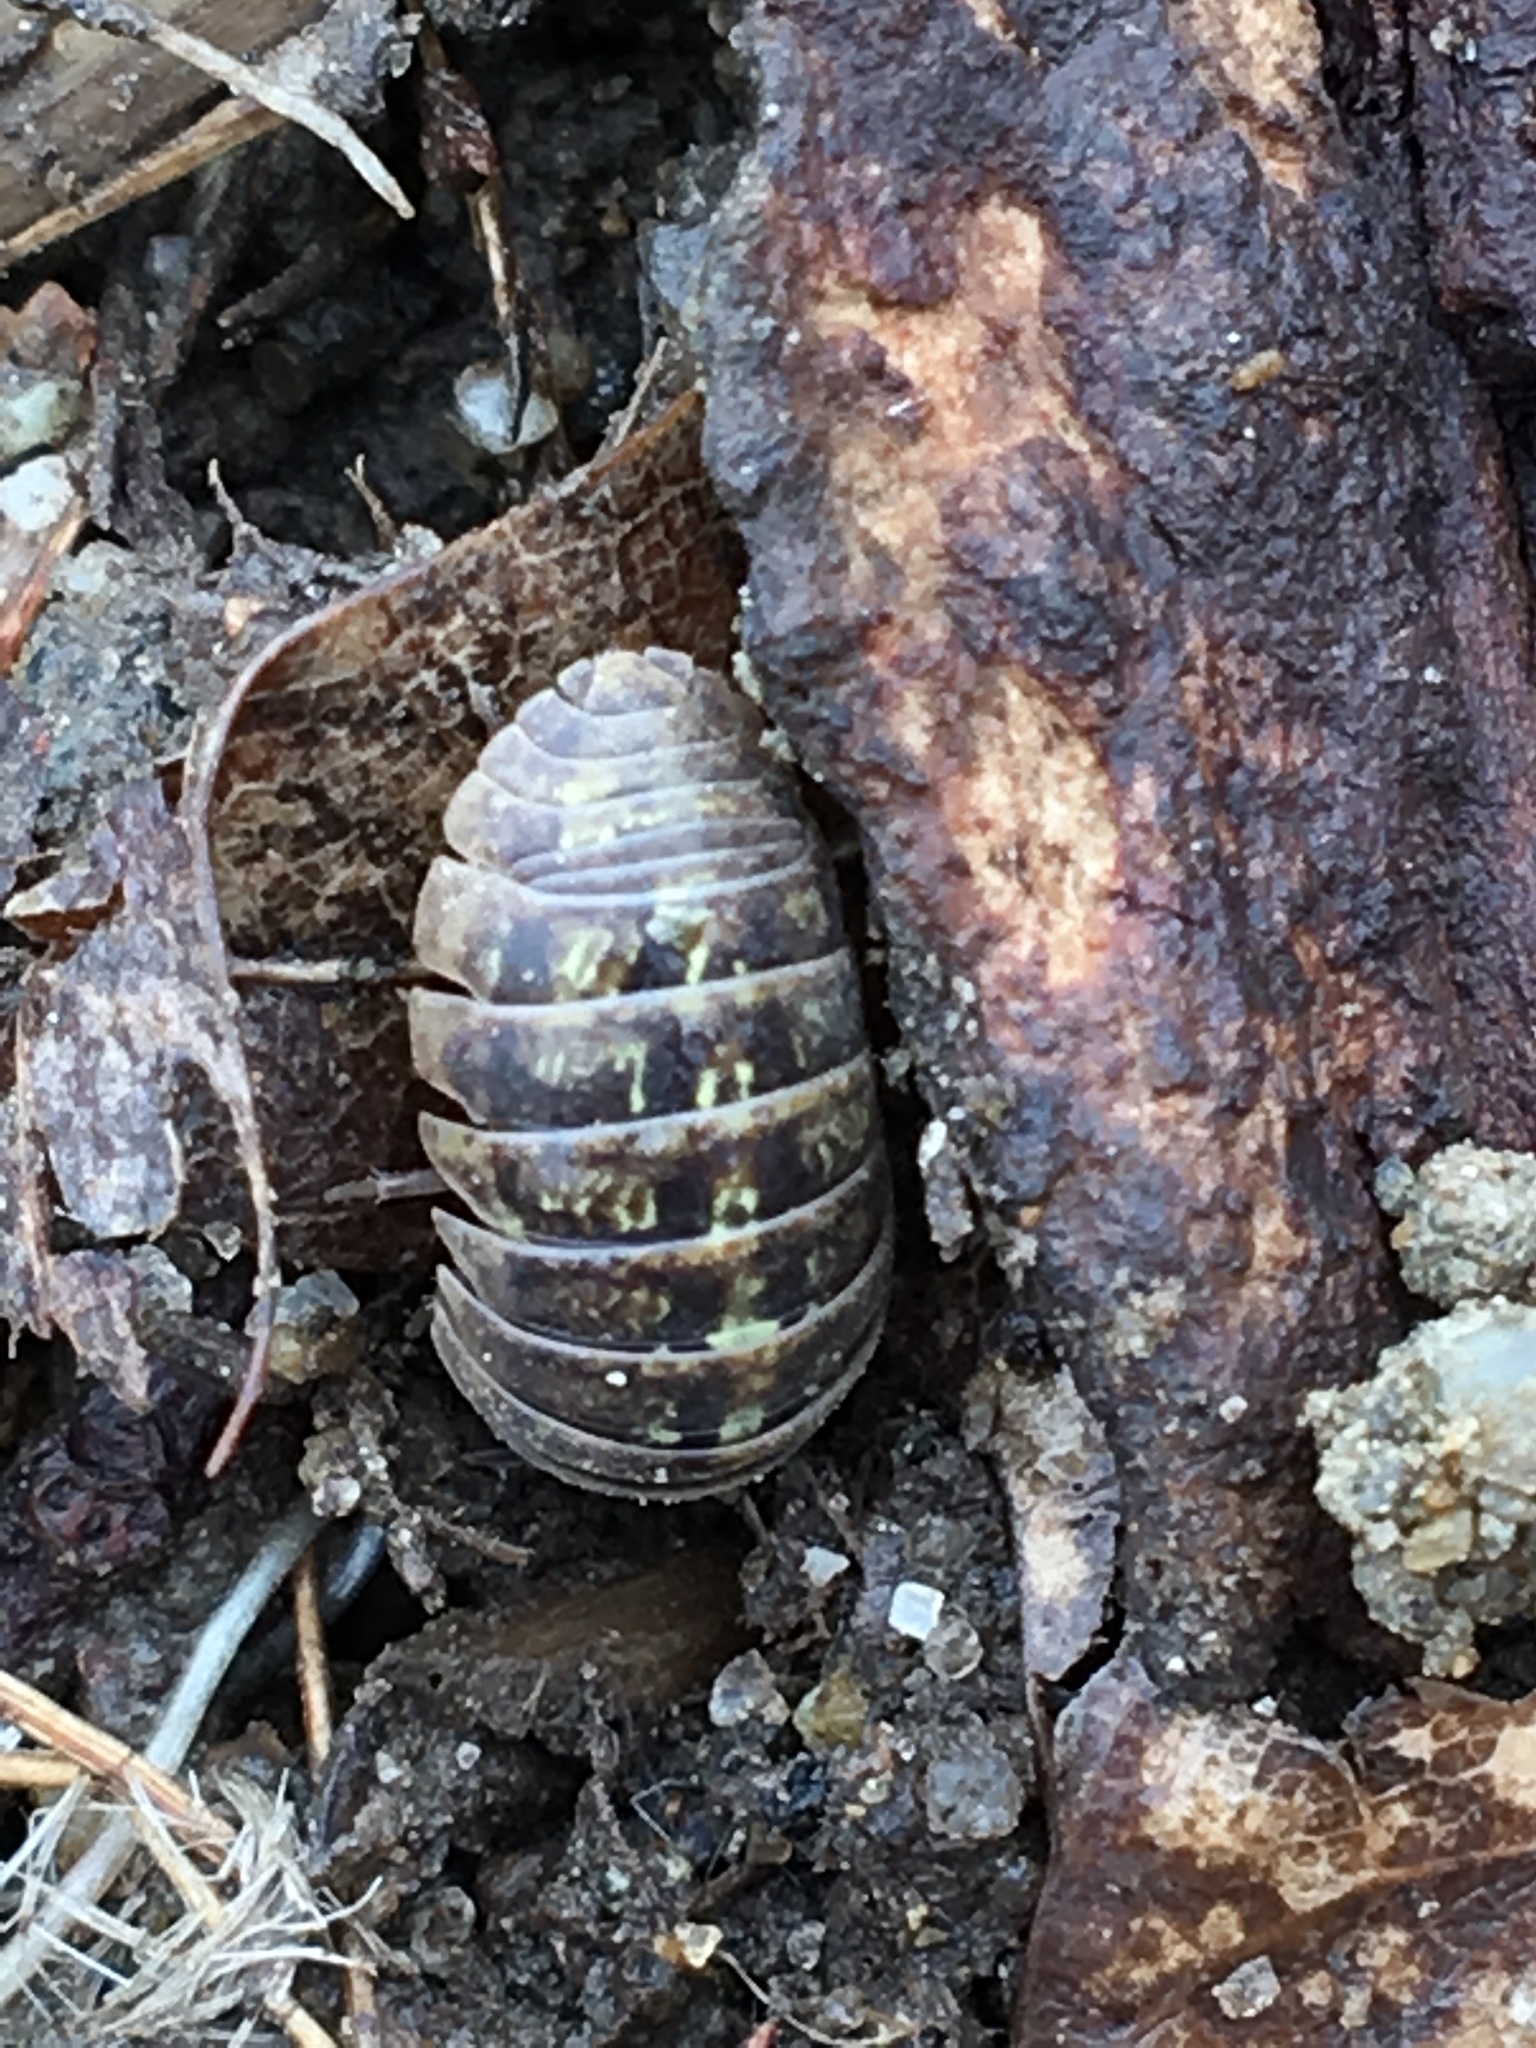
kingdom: Animalia
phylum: Arthropoda
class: Malacostraca
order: Isopoda
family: Armadillidiidae
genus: Armadillidium
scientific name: Armadillidium vulgare
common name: Common pill woodlouse
